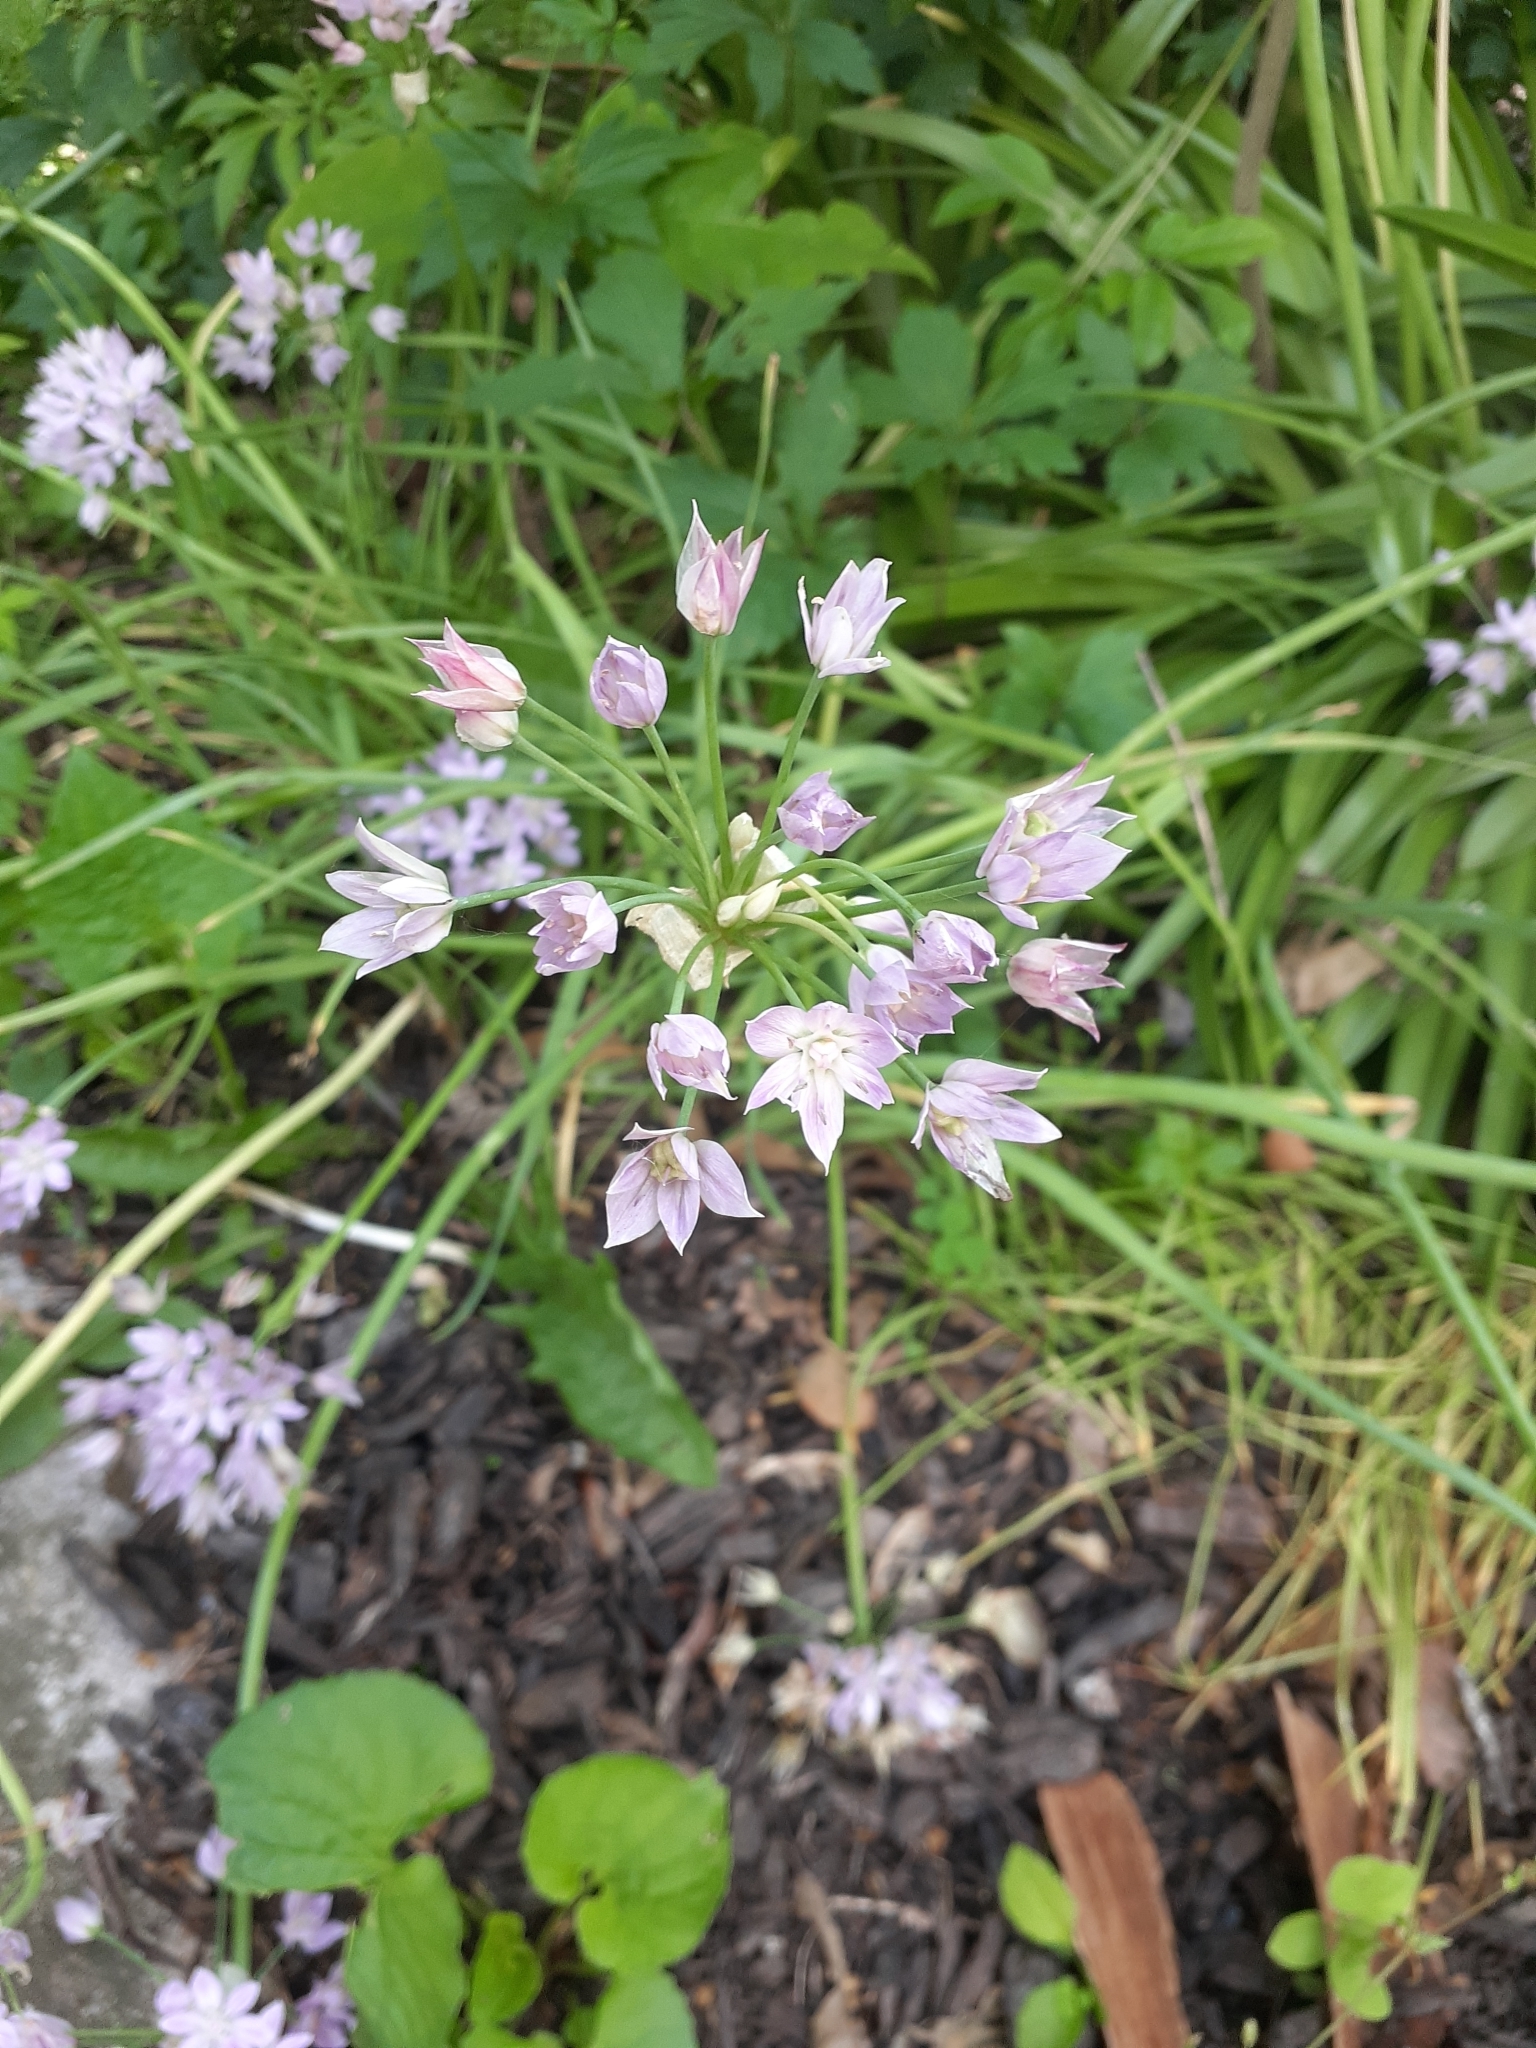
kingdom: Plantae
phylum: Tracheophyta
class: Liliopsida
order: Asparagales
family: Amaryllidaceae
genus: Allium
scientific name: Allium canadense
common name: Meadow garlic
